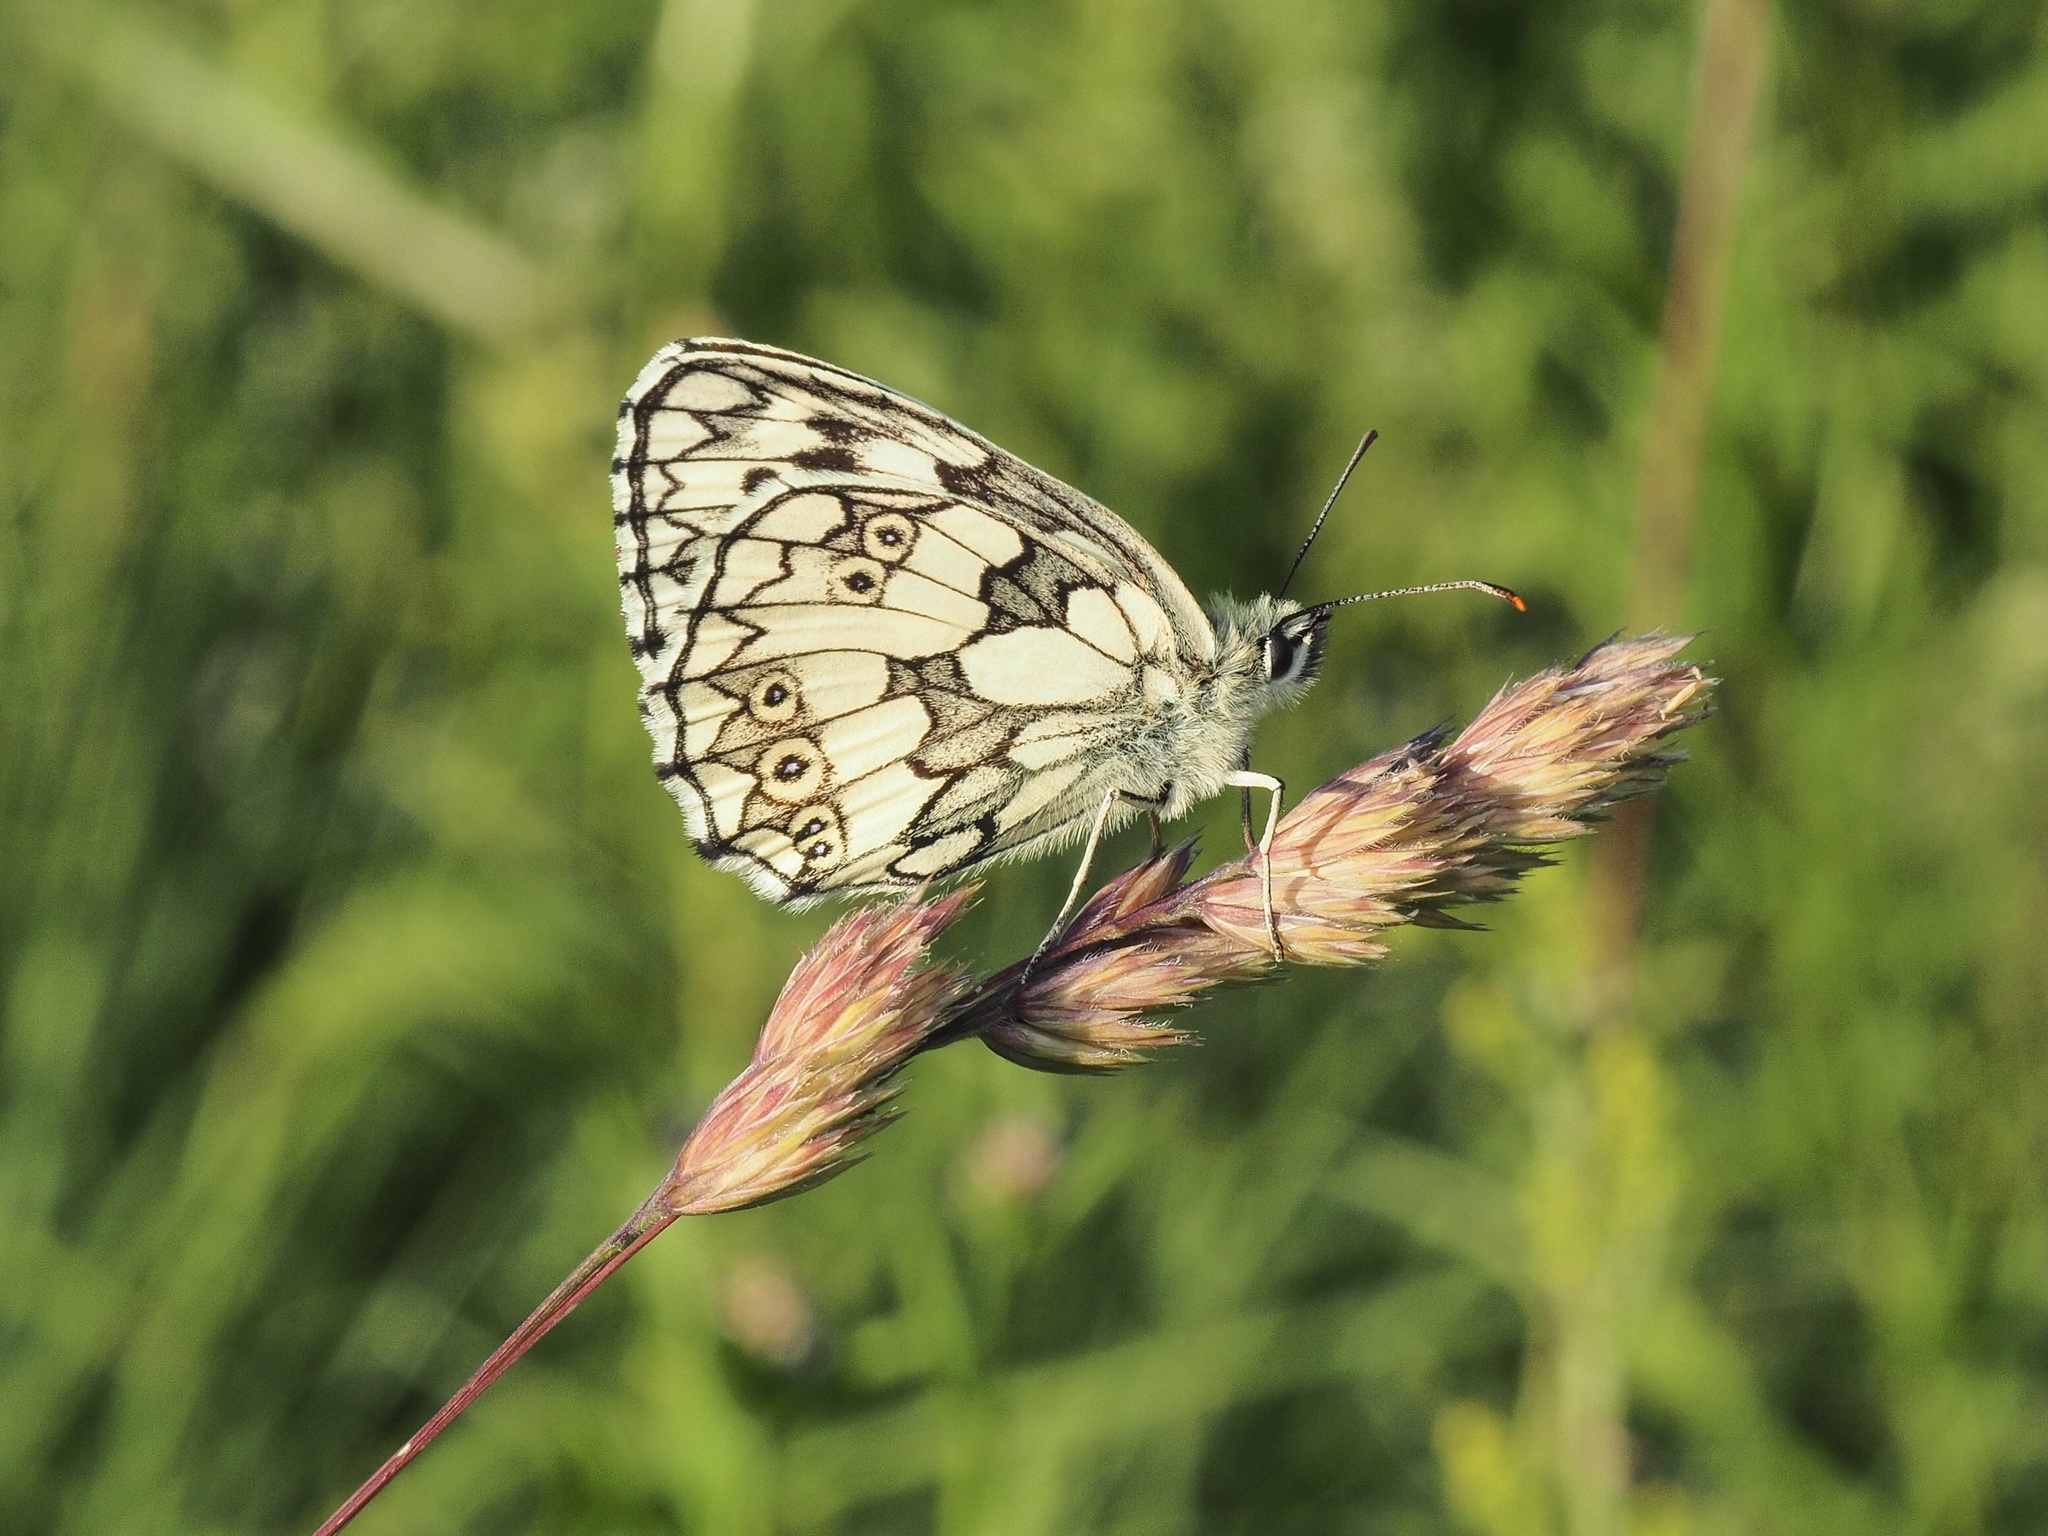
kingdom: Animalia
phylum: Arthropoda
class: Insecta
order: Lepidoptera
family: Nymphalidae
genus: Melanargia
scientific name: Melanargia galathea
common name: Marbled white
